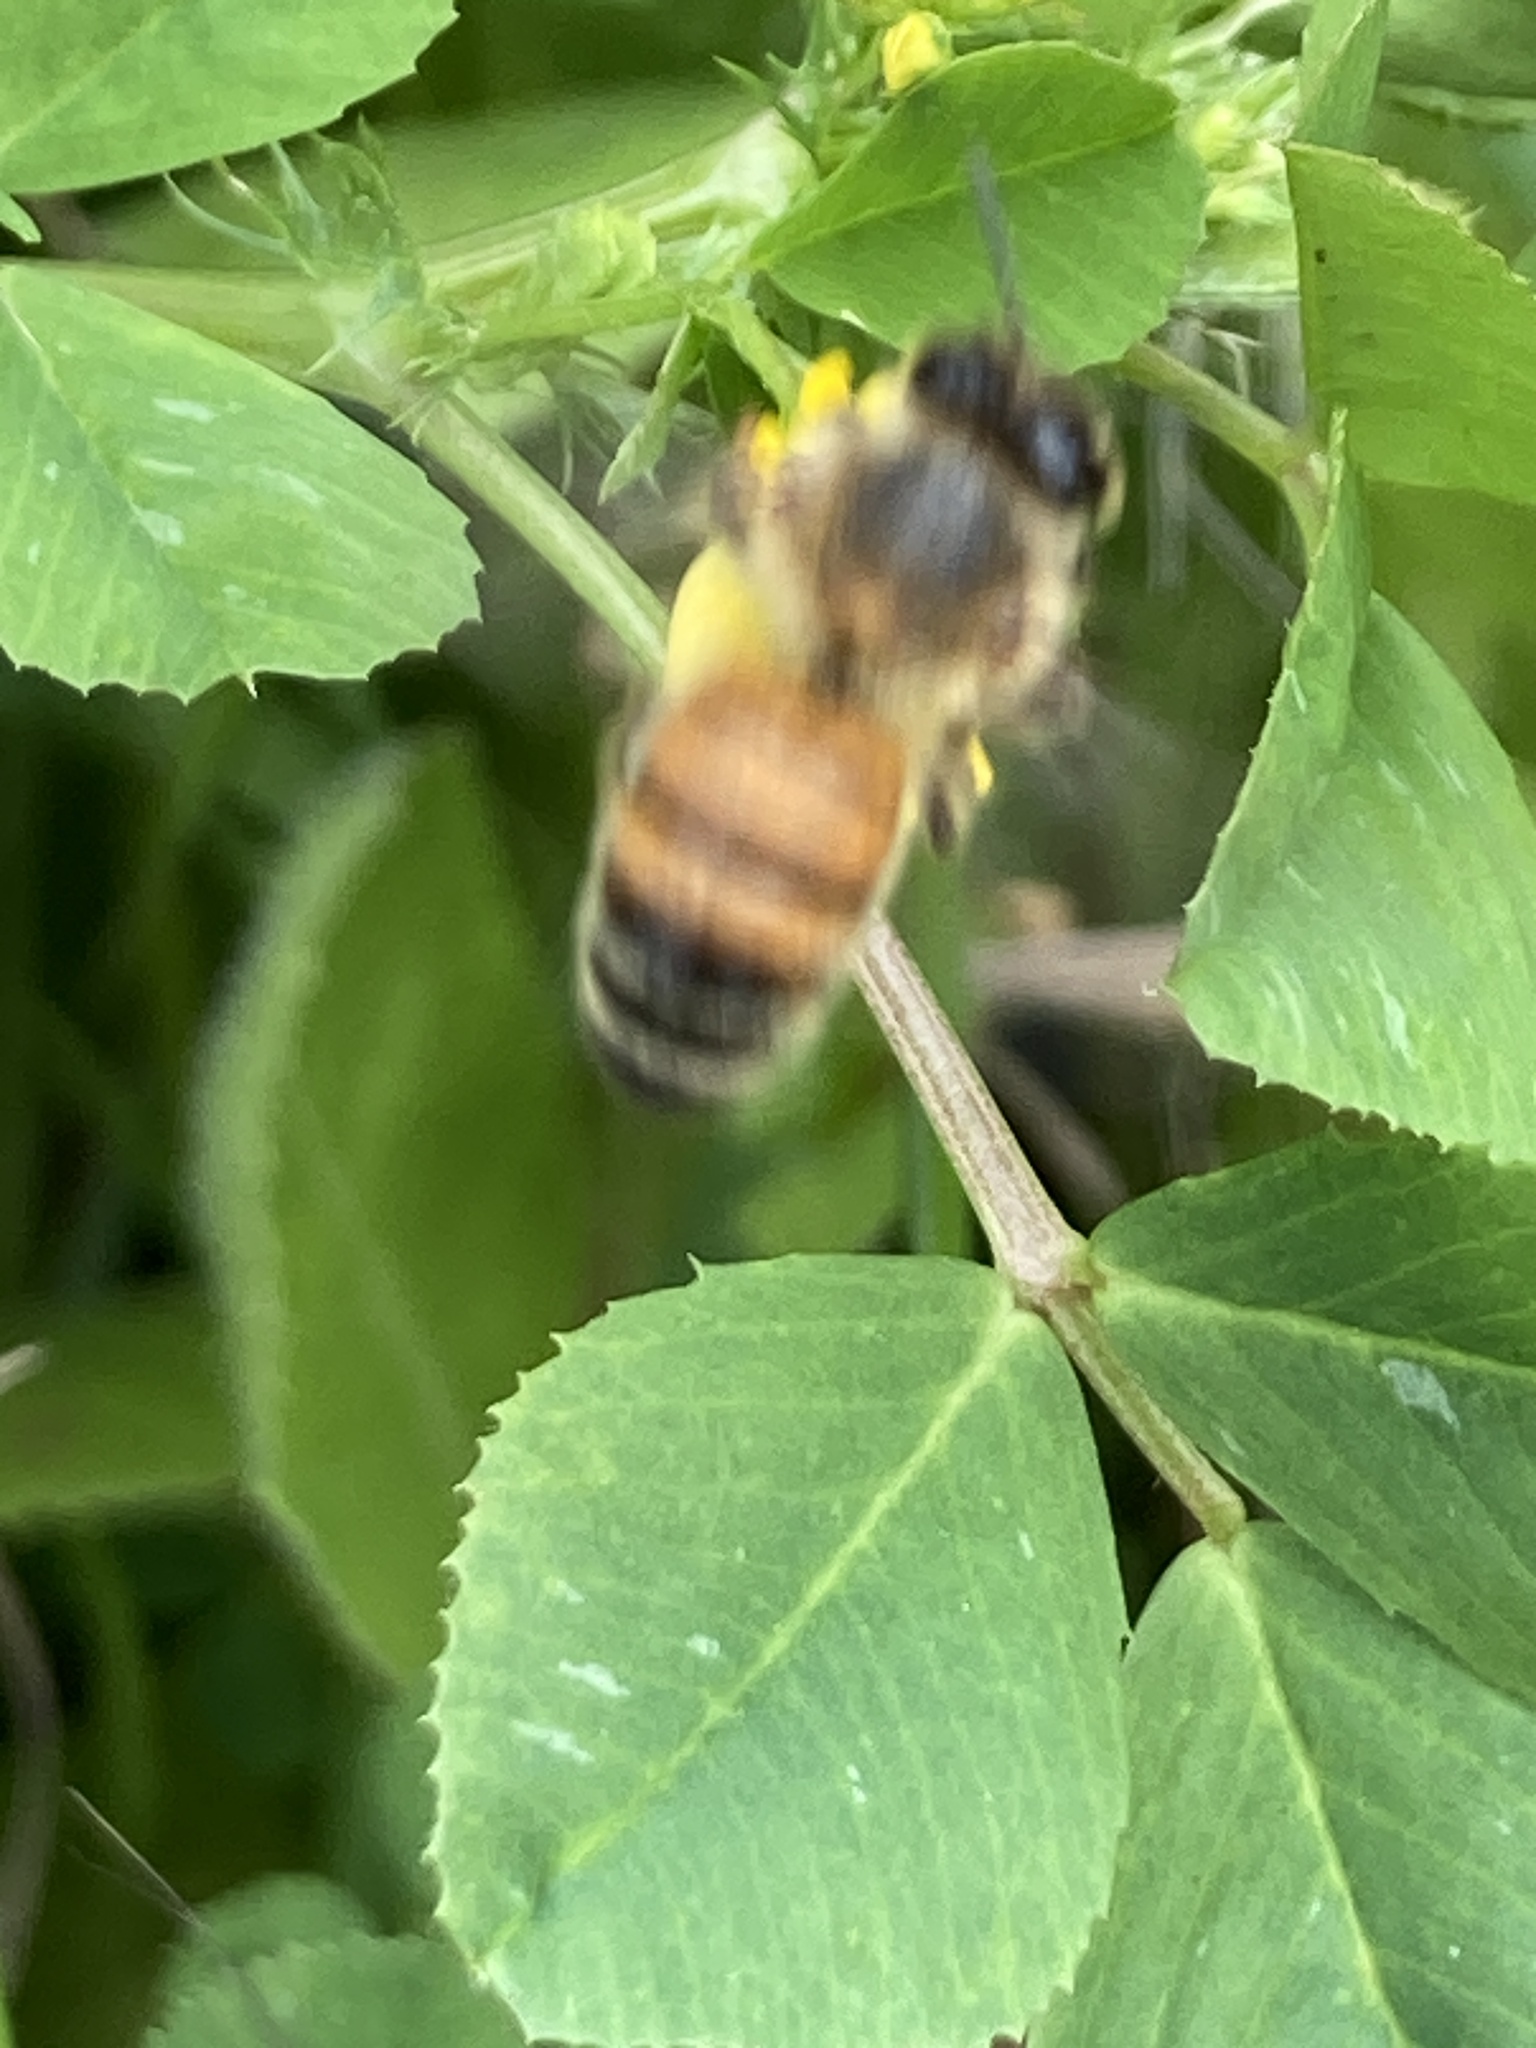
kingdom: Animalia
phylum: Arthropoda
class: Insecta
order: Hymenoptera
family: Apidae
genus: Apis
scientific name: Apis mellifera
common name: Honey bee
